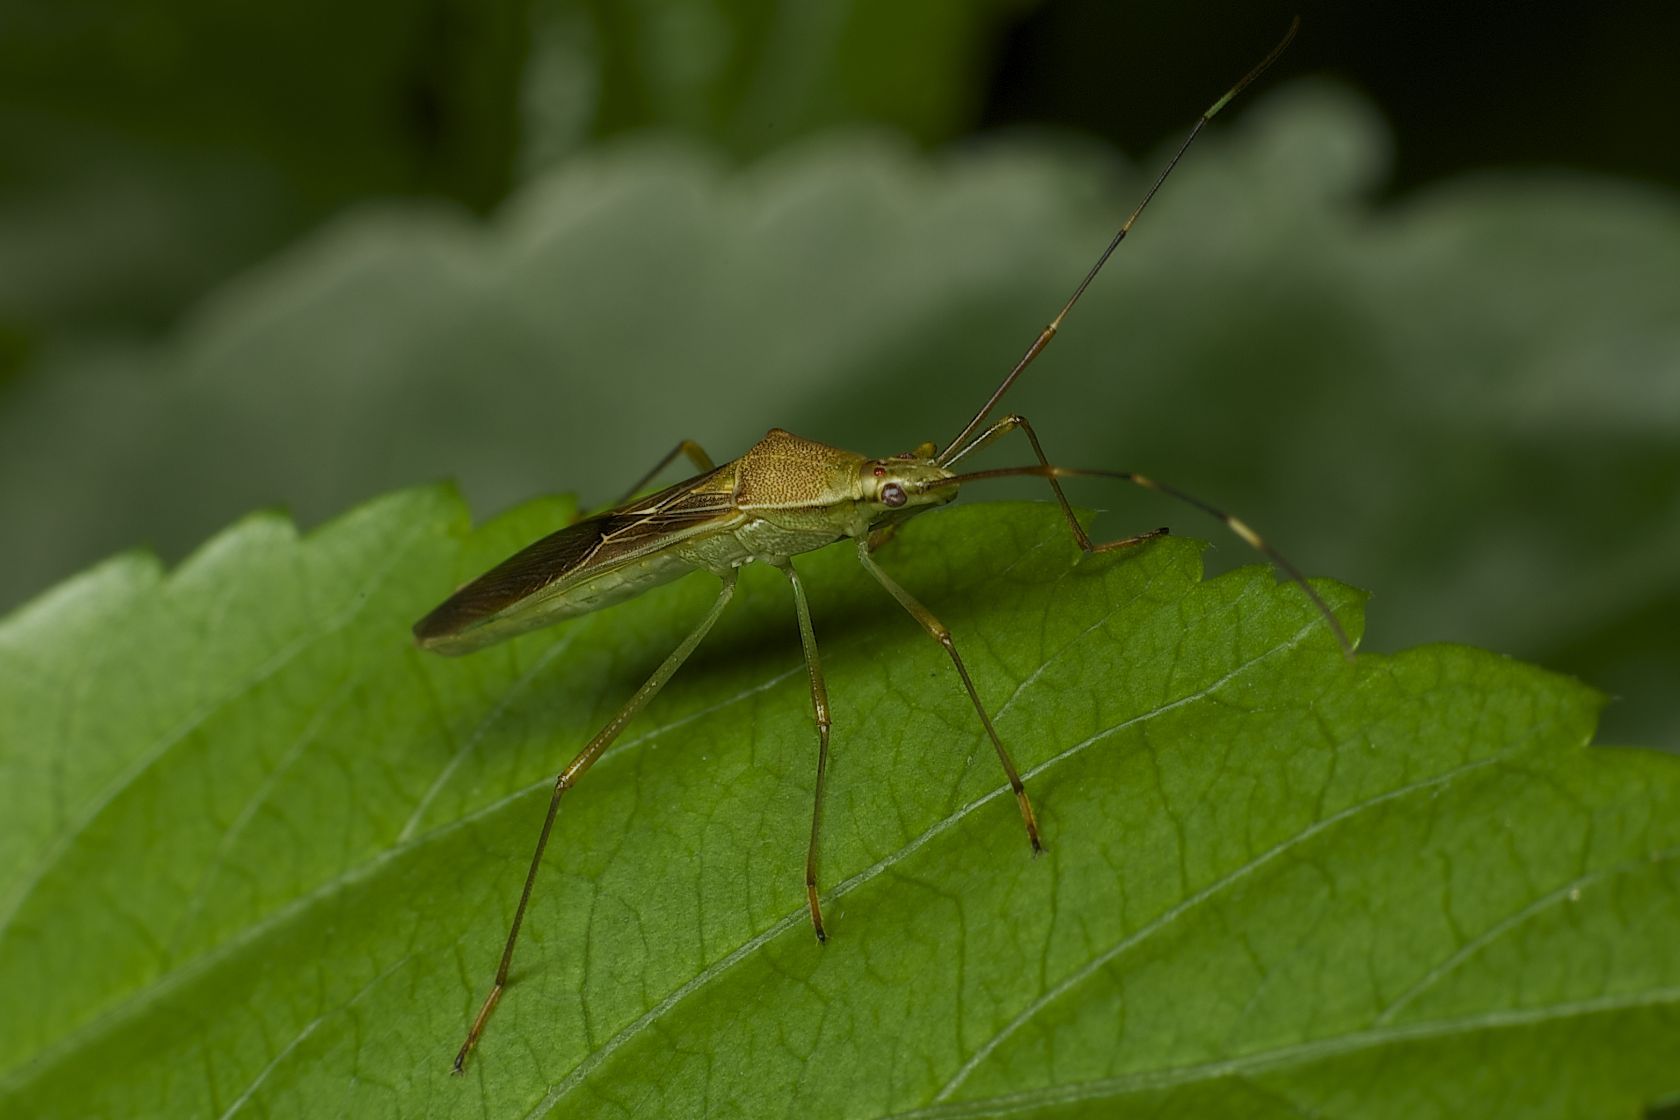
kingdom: Animalia
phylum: Arthropoda
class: Insecta
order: Hemiptera
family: Alydidae
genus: Leptocorisa
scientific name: Leptocorisa chinensis
